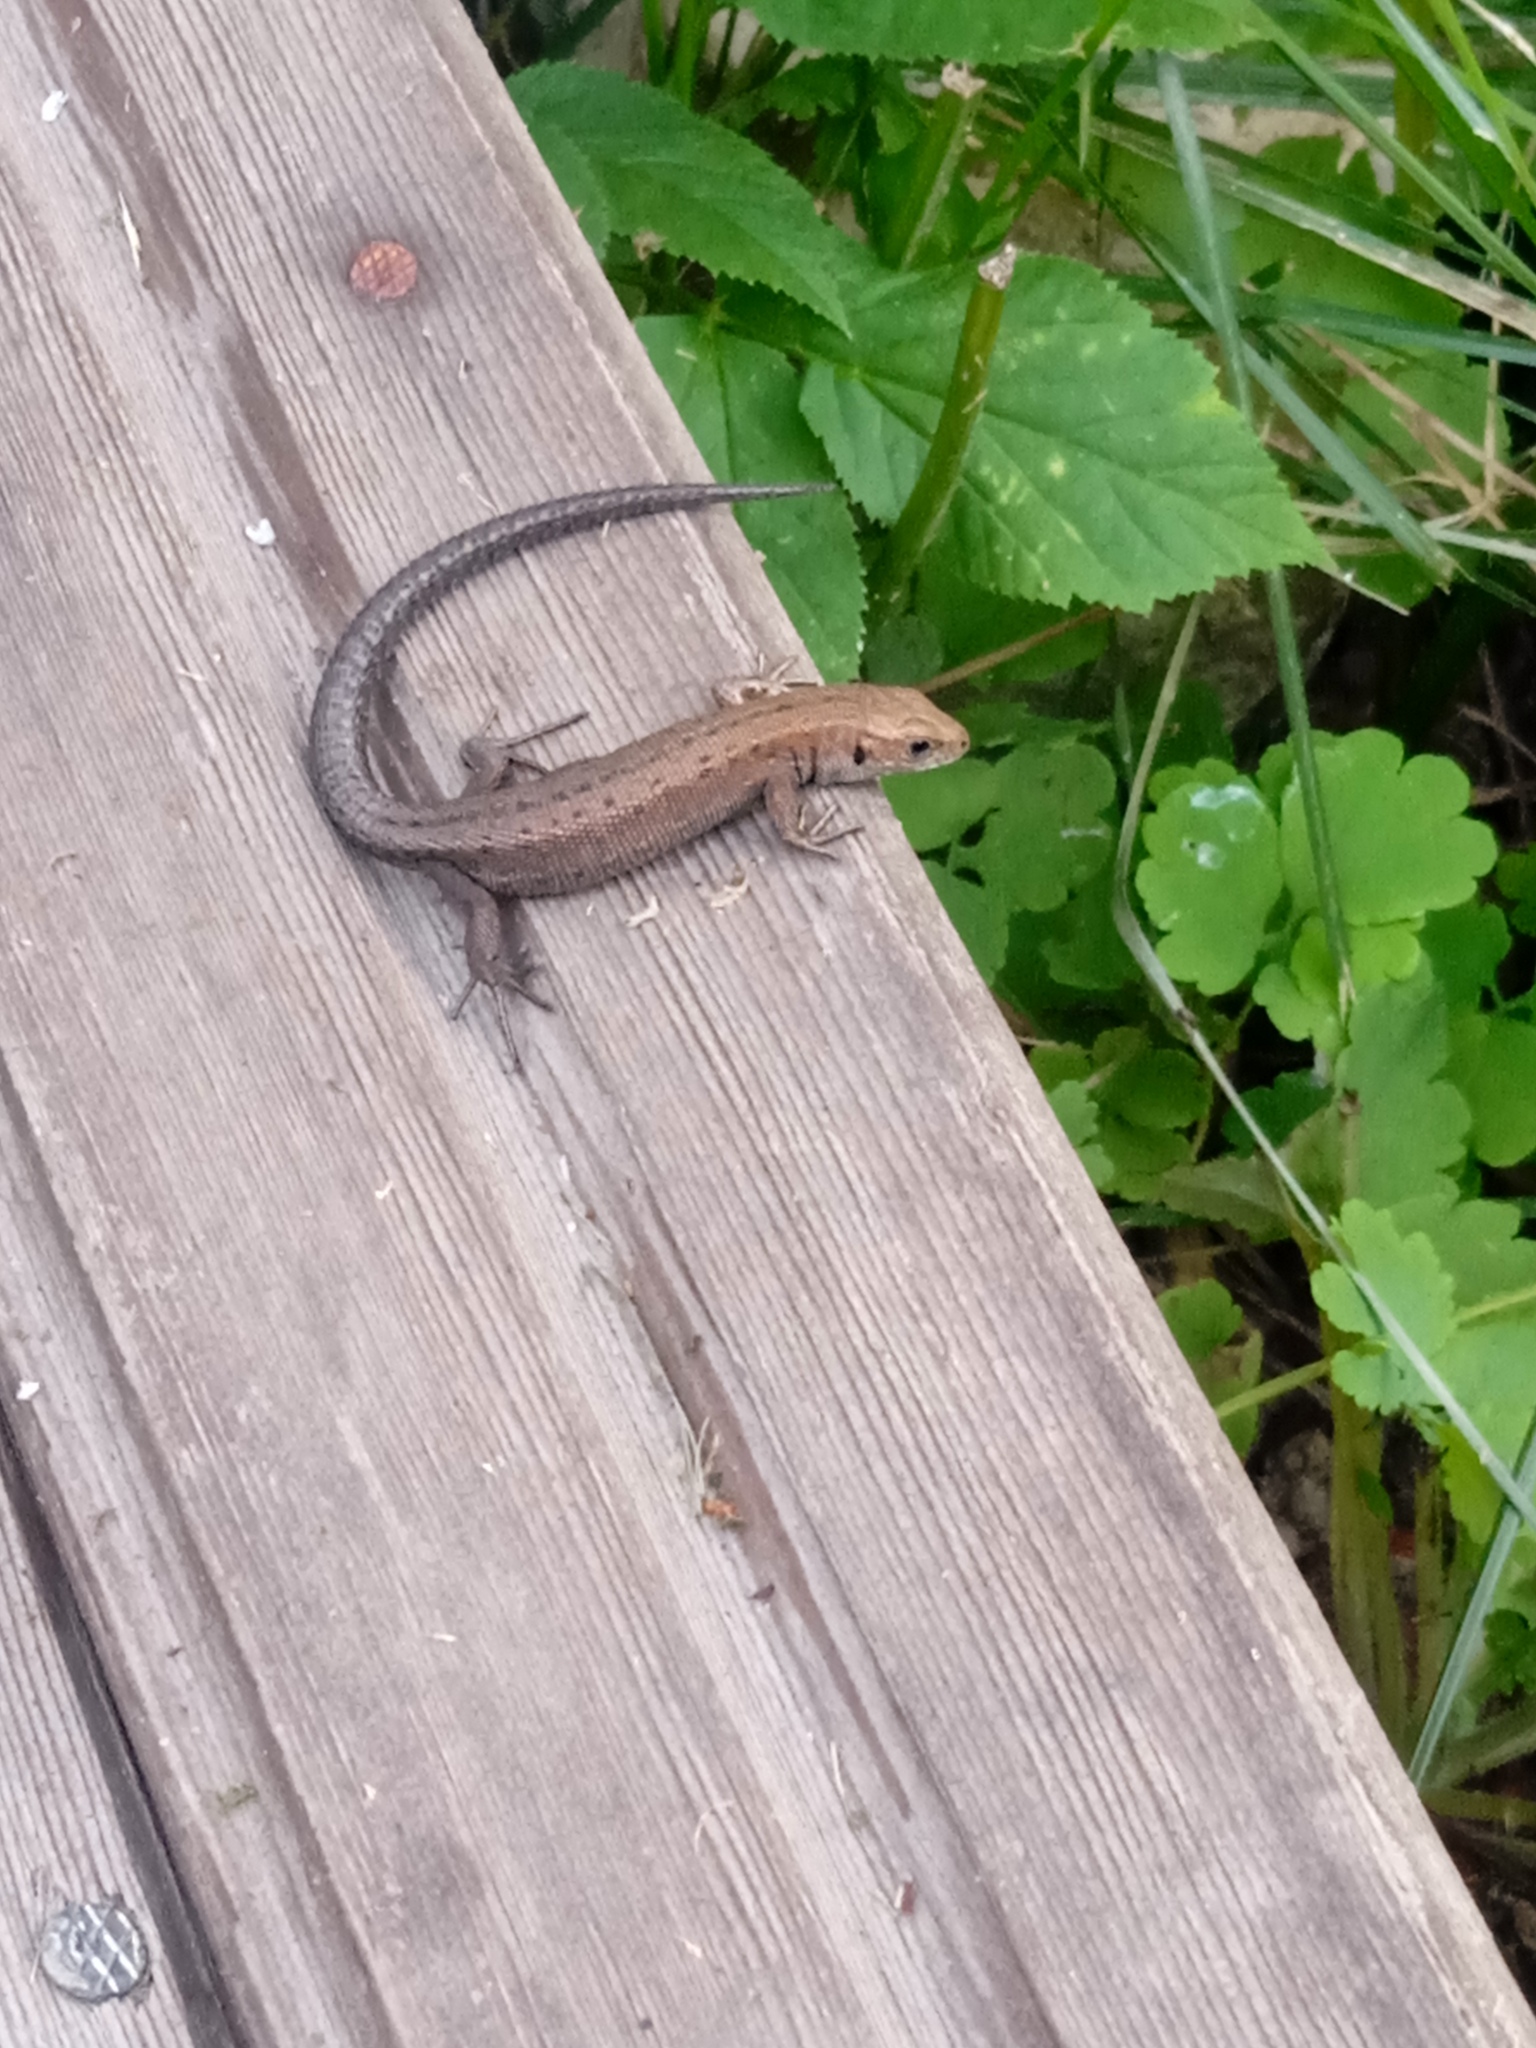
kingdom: Animalia
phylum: Chordata
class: Squamata
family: Lacertidae
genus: Zootoca
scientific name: Zootoca vivipara
